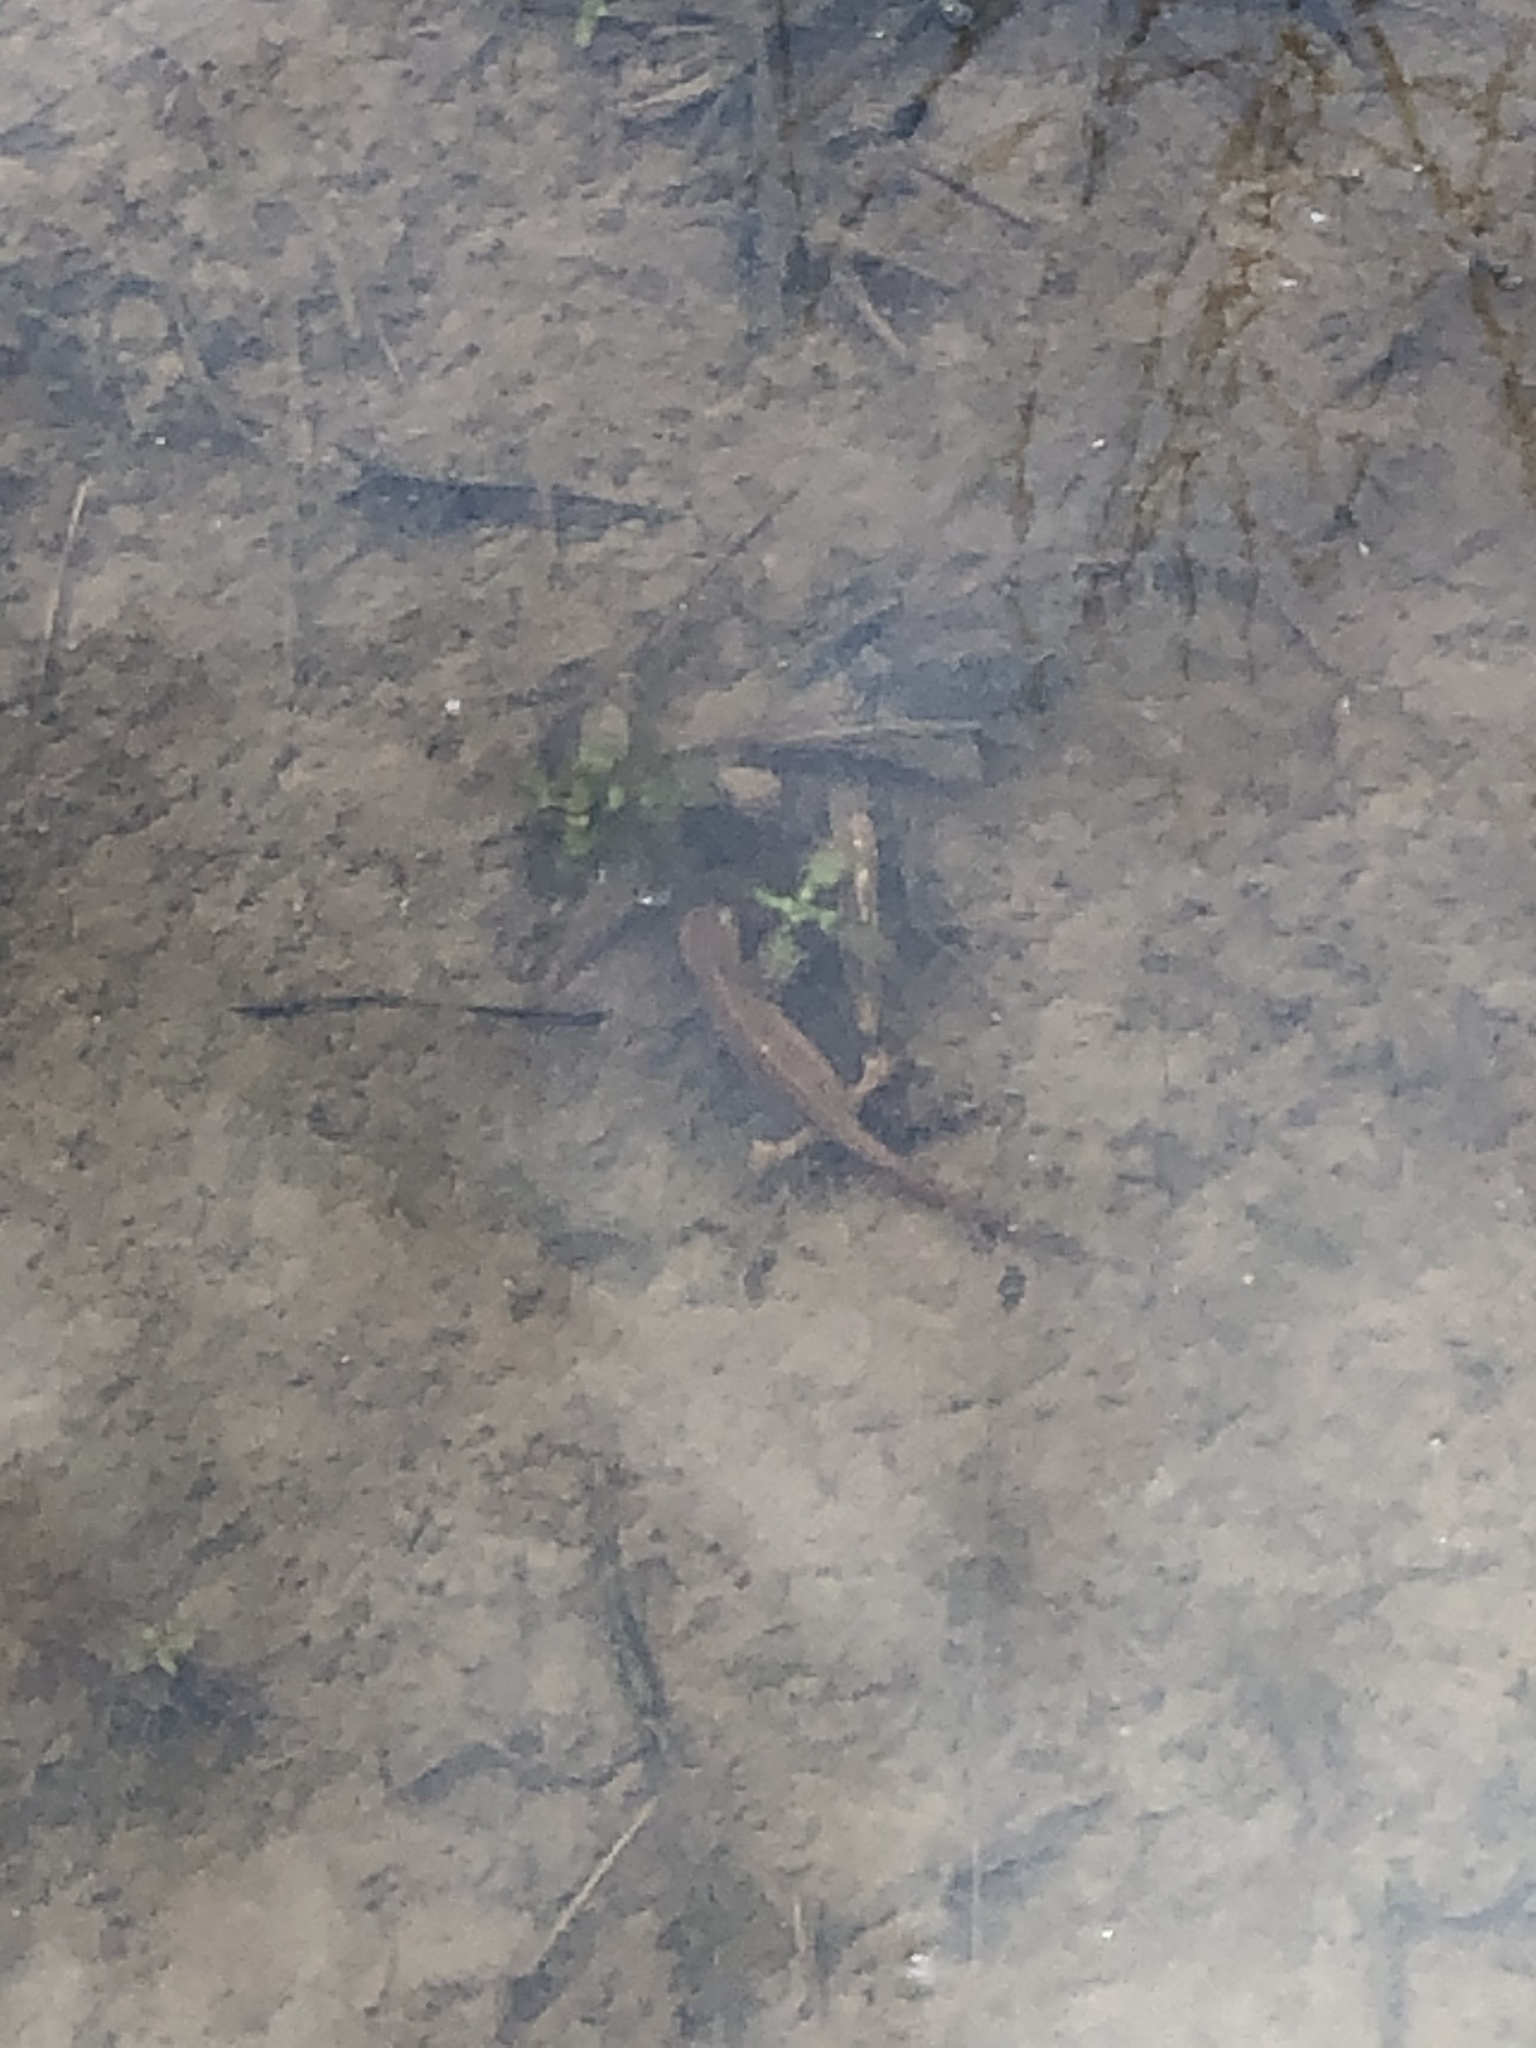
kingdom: Animalia
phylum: Chordata
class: Amphibia
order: Caudata
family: Salamandridae
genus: Notophthalmus
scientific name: Notophthalmus viridescens
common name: Eastern newt
